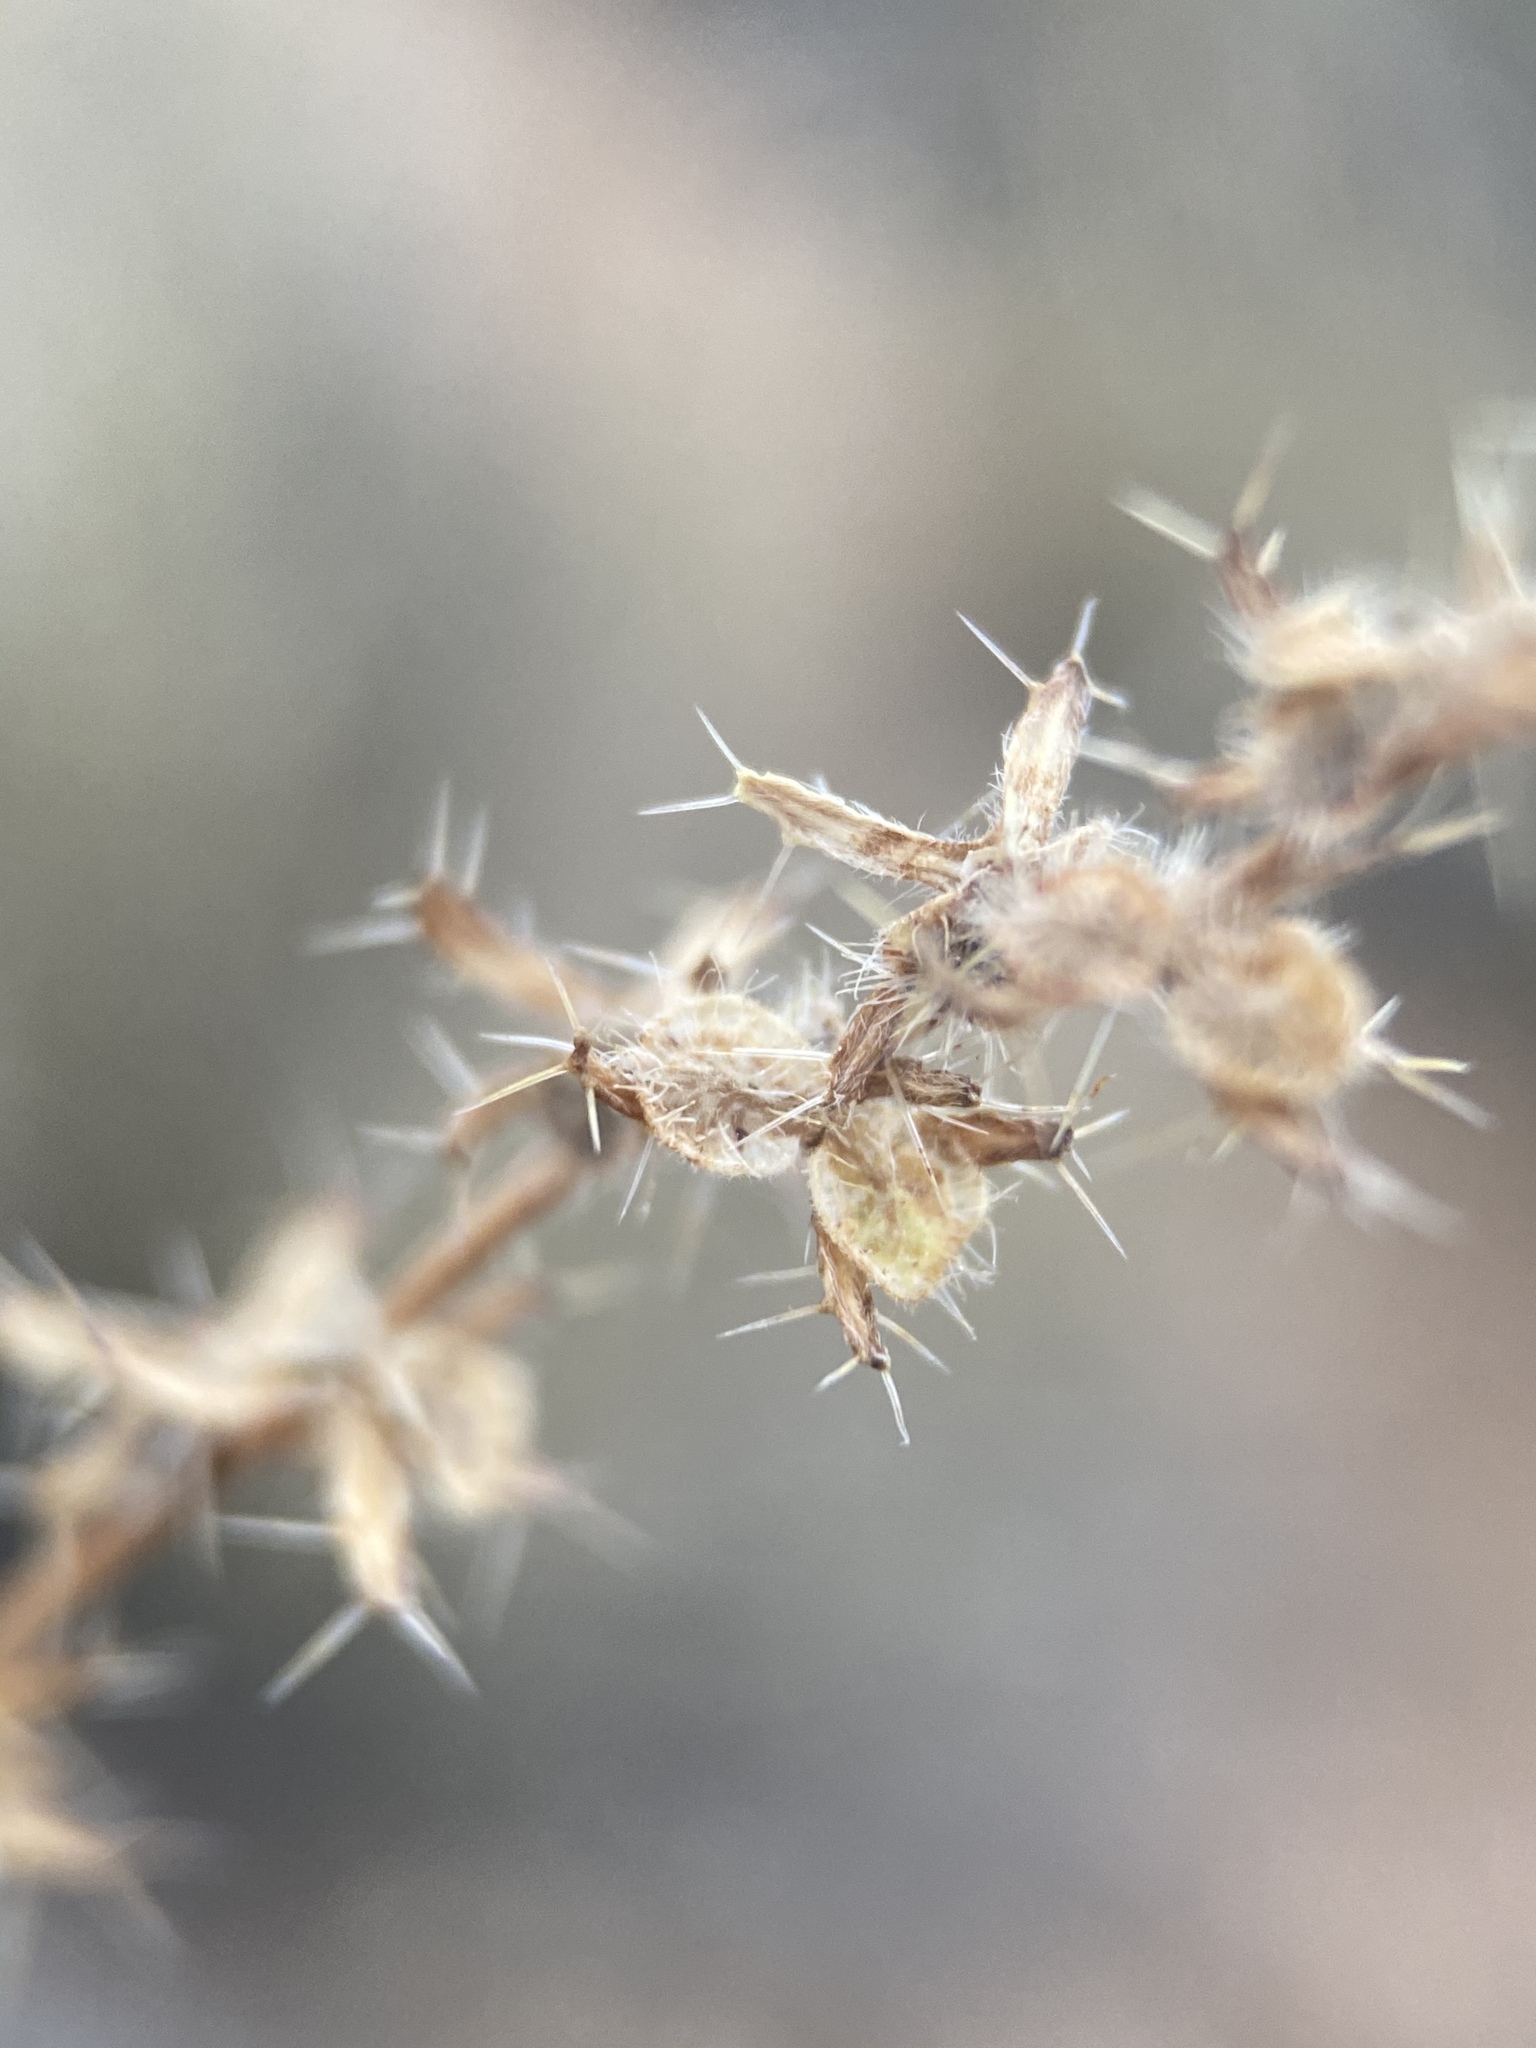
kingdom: Plantae
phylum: Tracheophyta
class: Magnoliopsida
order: Boraginales
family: Boraginaceae
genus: Pectocarya
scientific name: Pectocarya setosa
